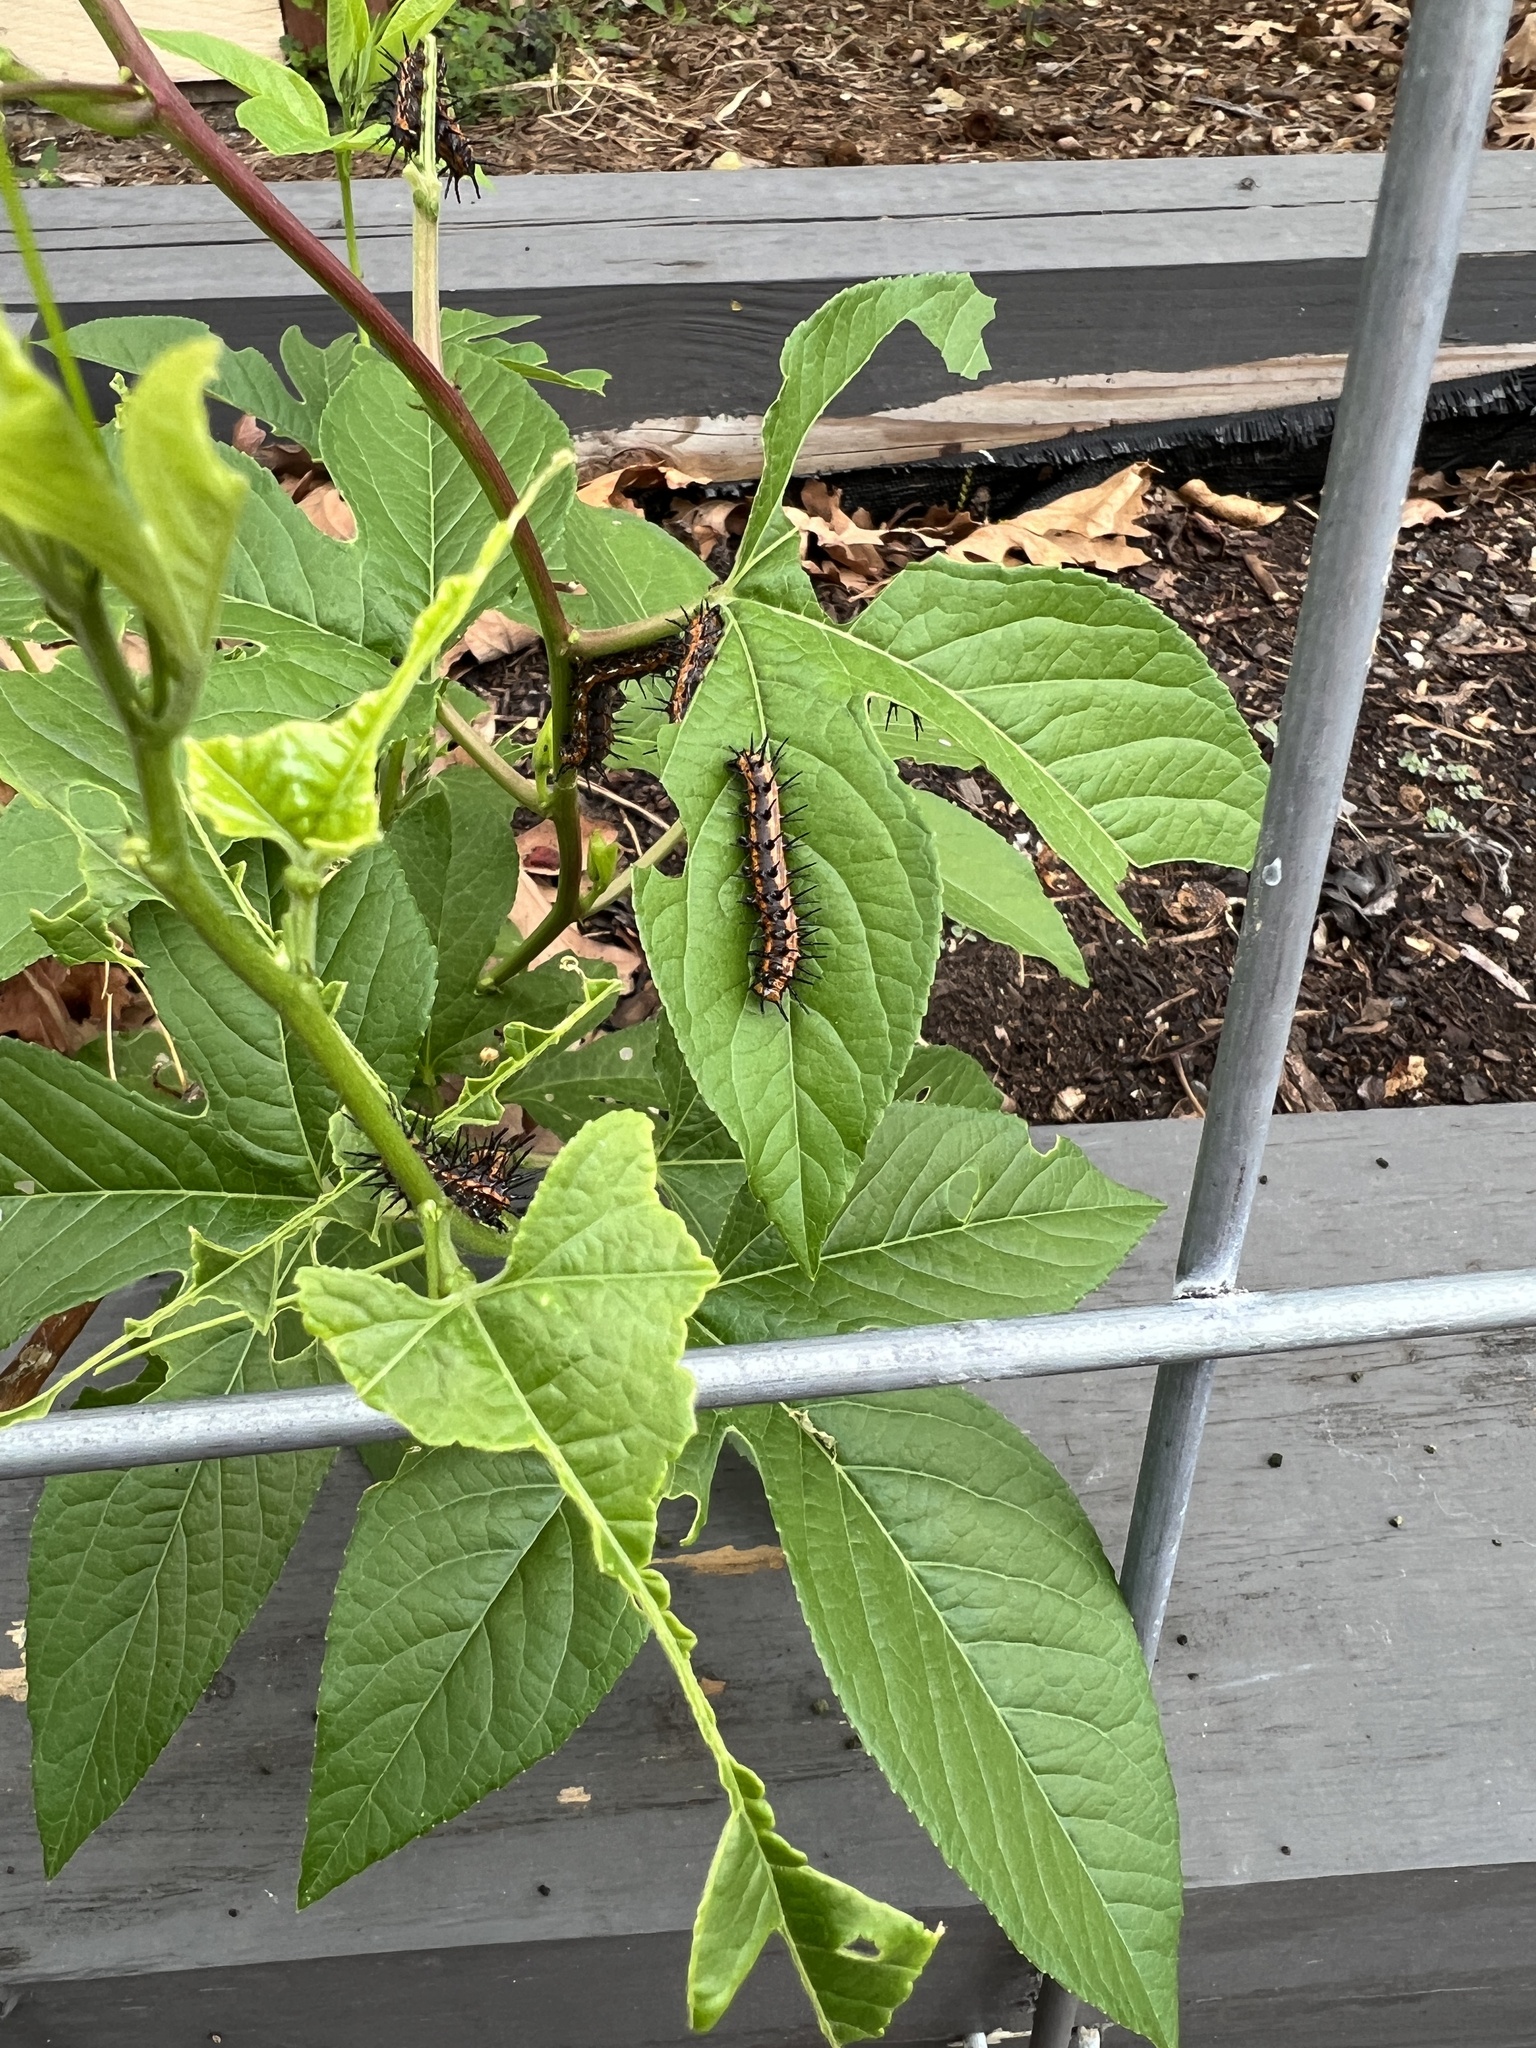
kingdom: Animalia
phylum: Arthropoda
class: Insecta
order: Lepidoptera
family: Nymphalidae
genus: Dione
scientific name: Dione vanillae
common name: Gulf fritillary
